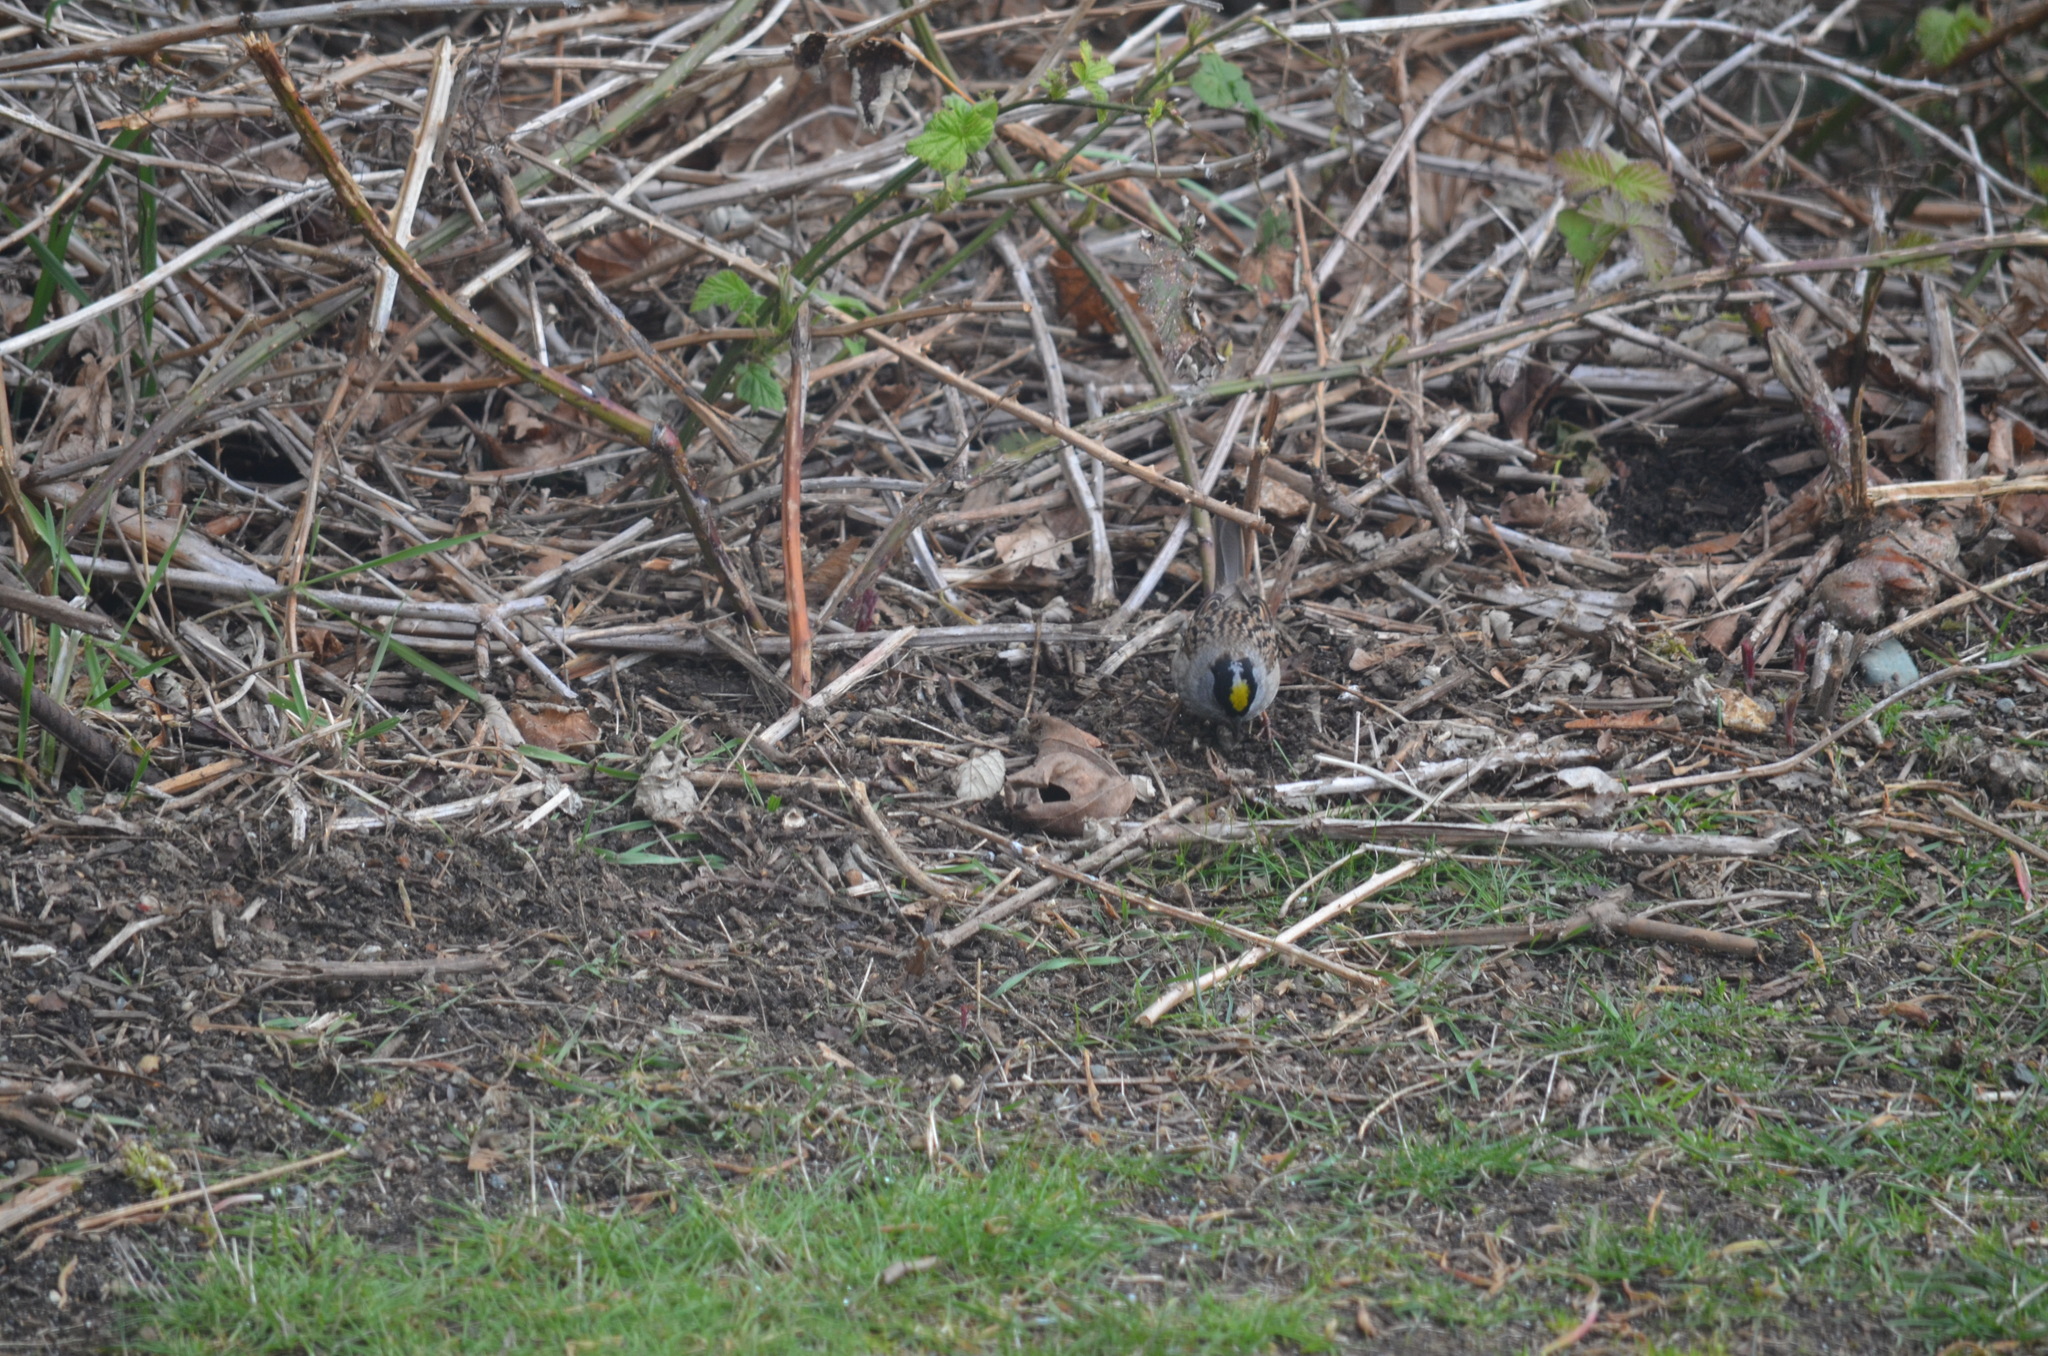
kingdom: Animalia
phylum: Chordata
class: Aves
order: Passeriformes
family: Passerellidae
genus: Zonotrichia
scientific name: Zonotrichia atricapilla
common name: Golden-crowned sparrow
